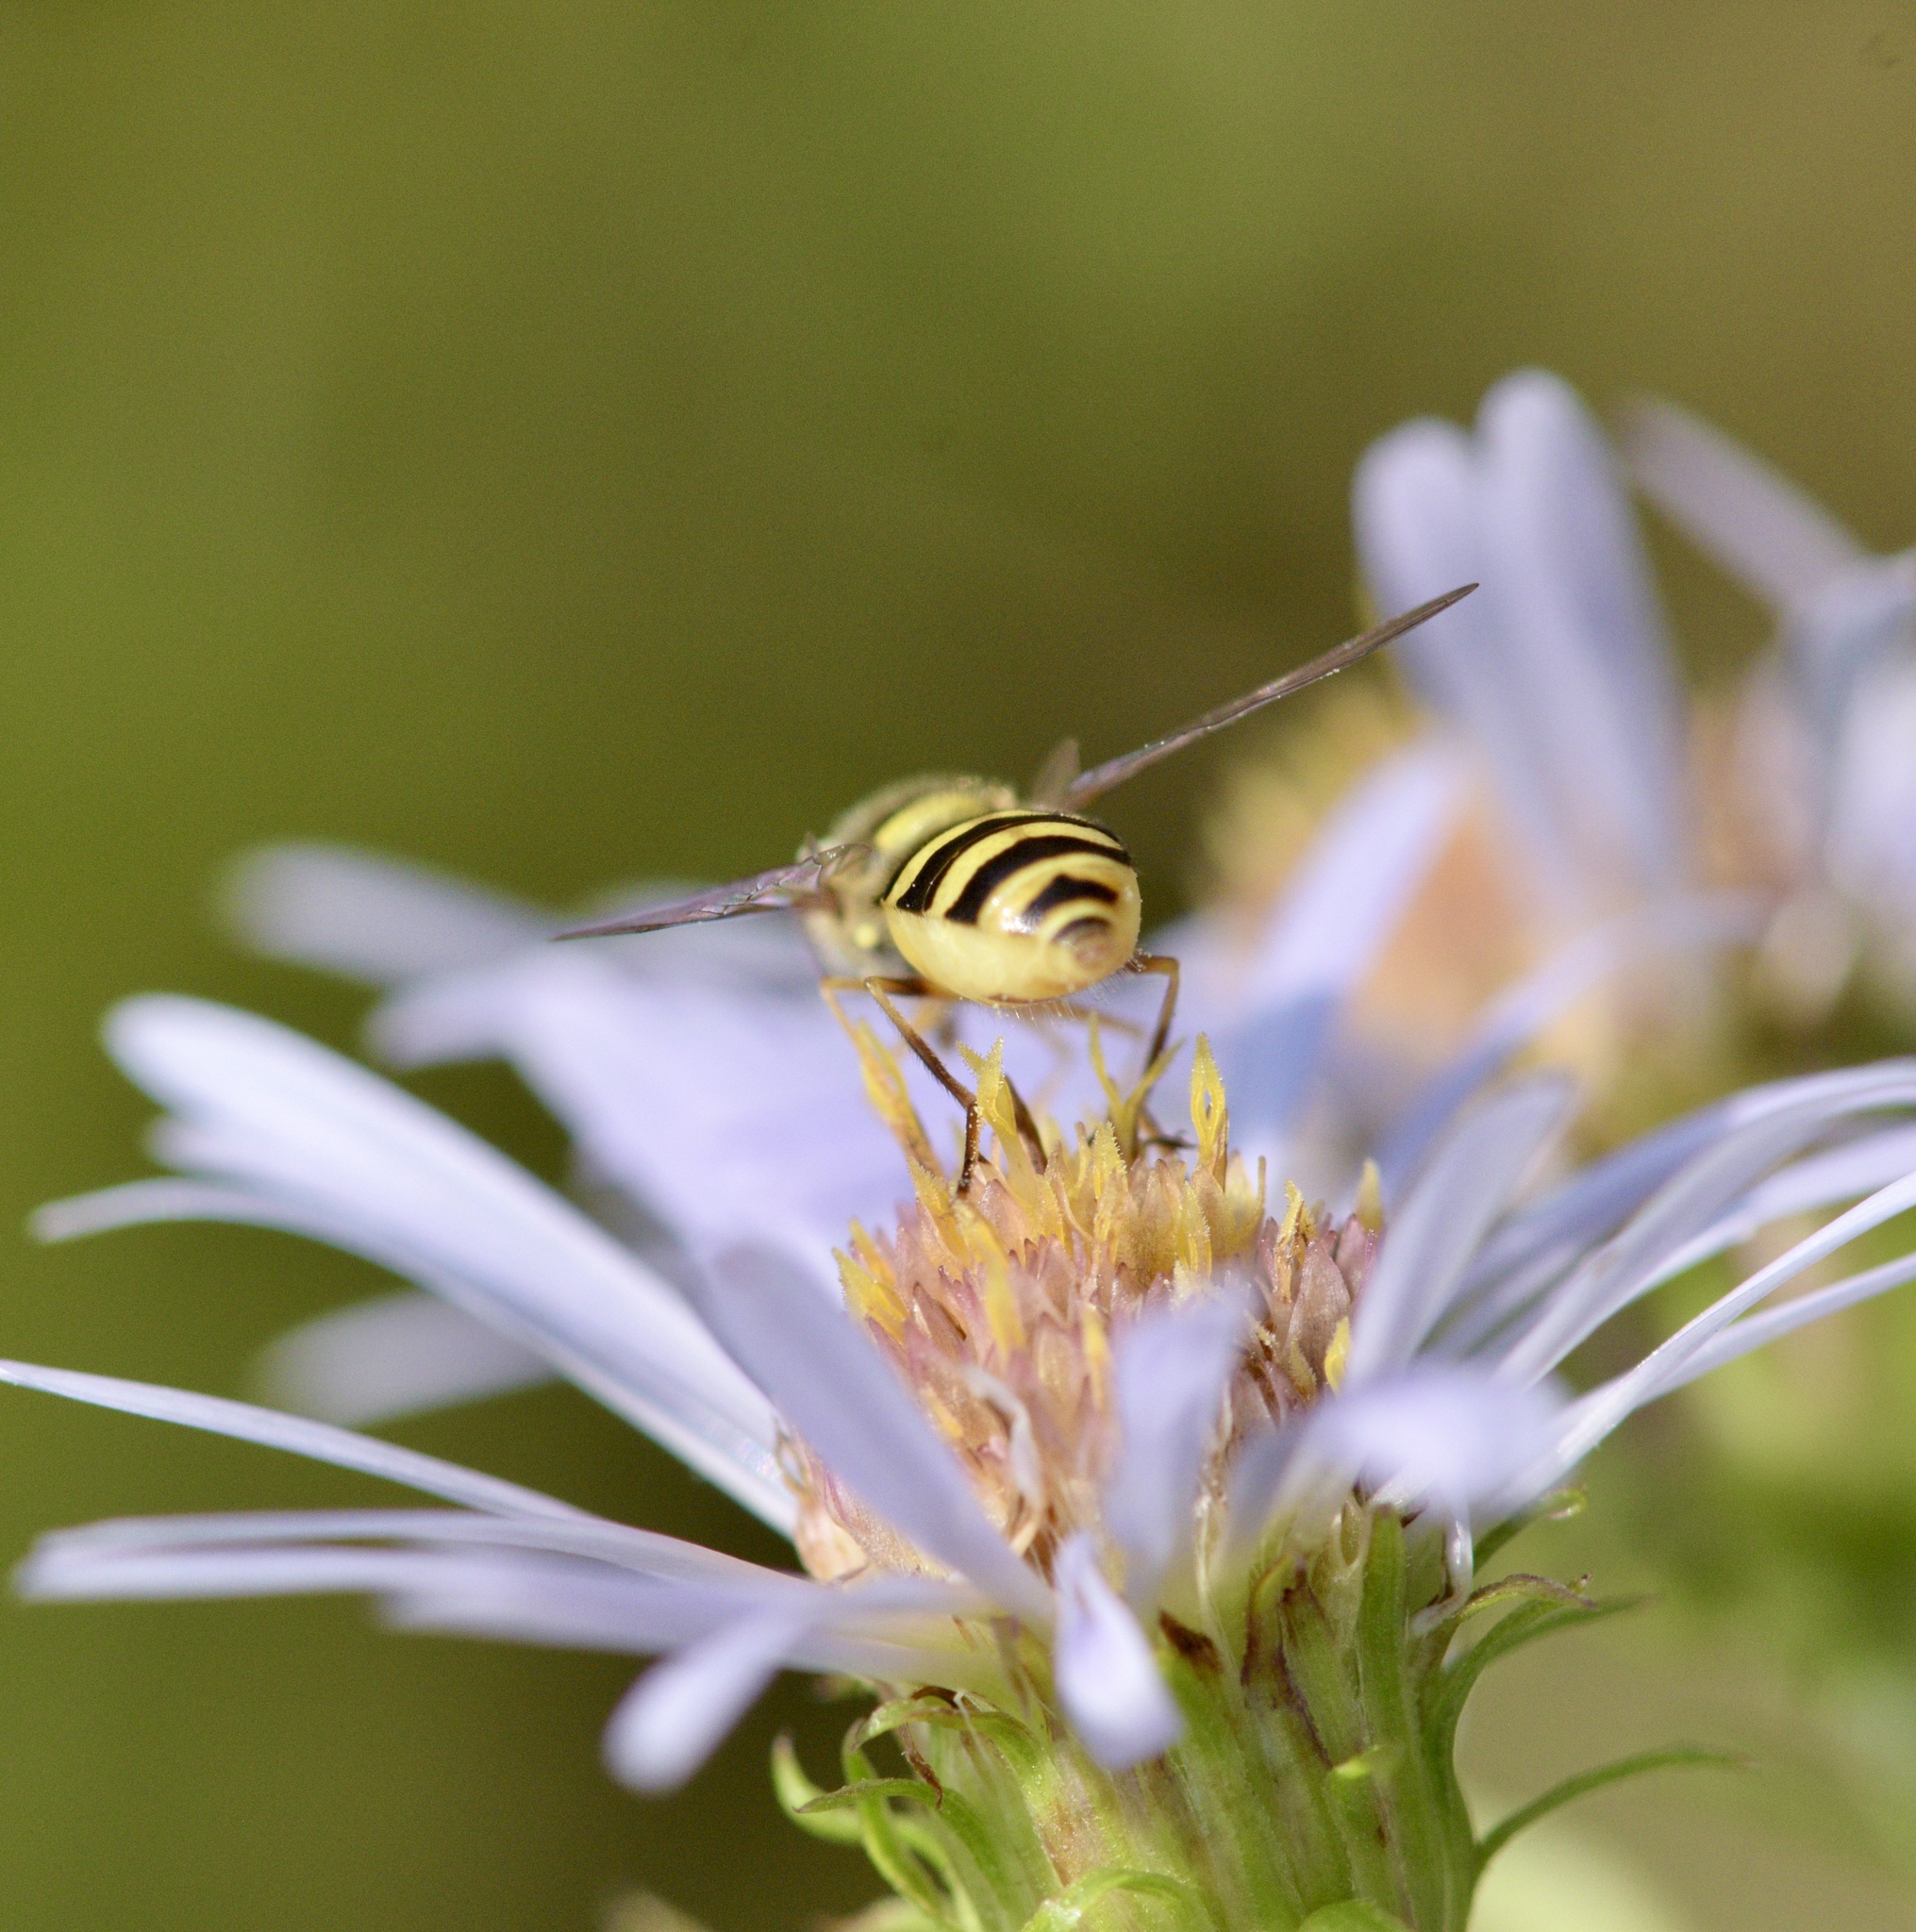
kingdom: Animalia
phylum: Arthropoda
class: Insecta
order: Diptera
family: Syrphidae
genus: Syrphus
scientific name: Syrphus rectus
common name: Yellow-legged flower fly
